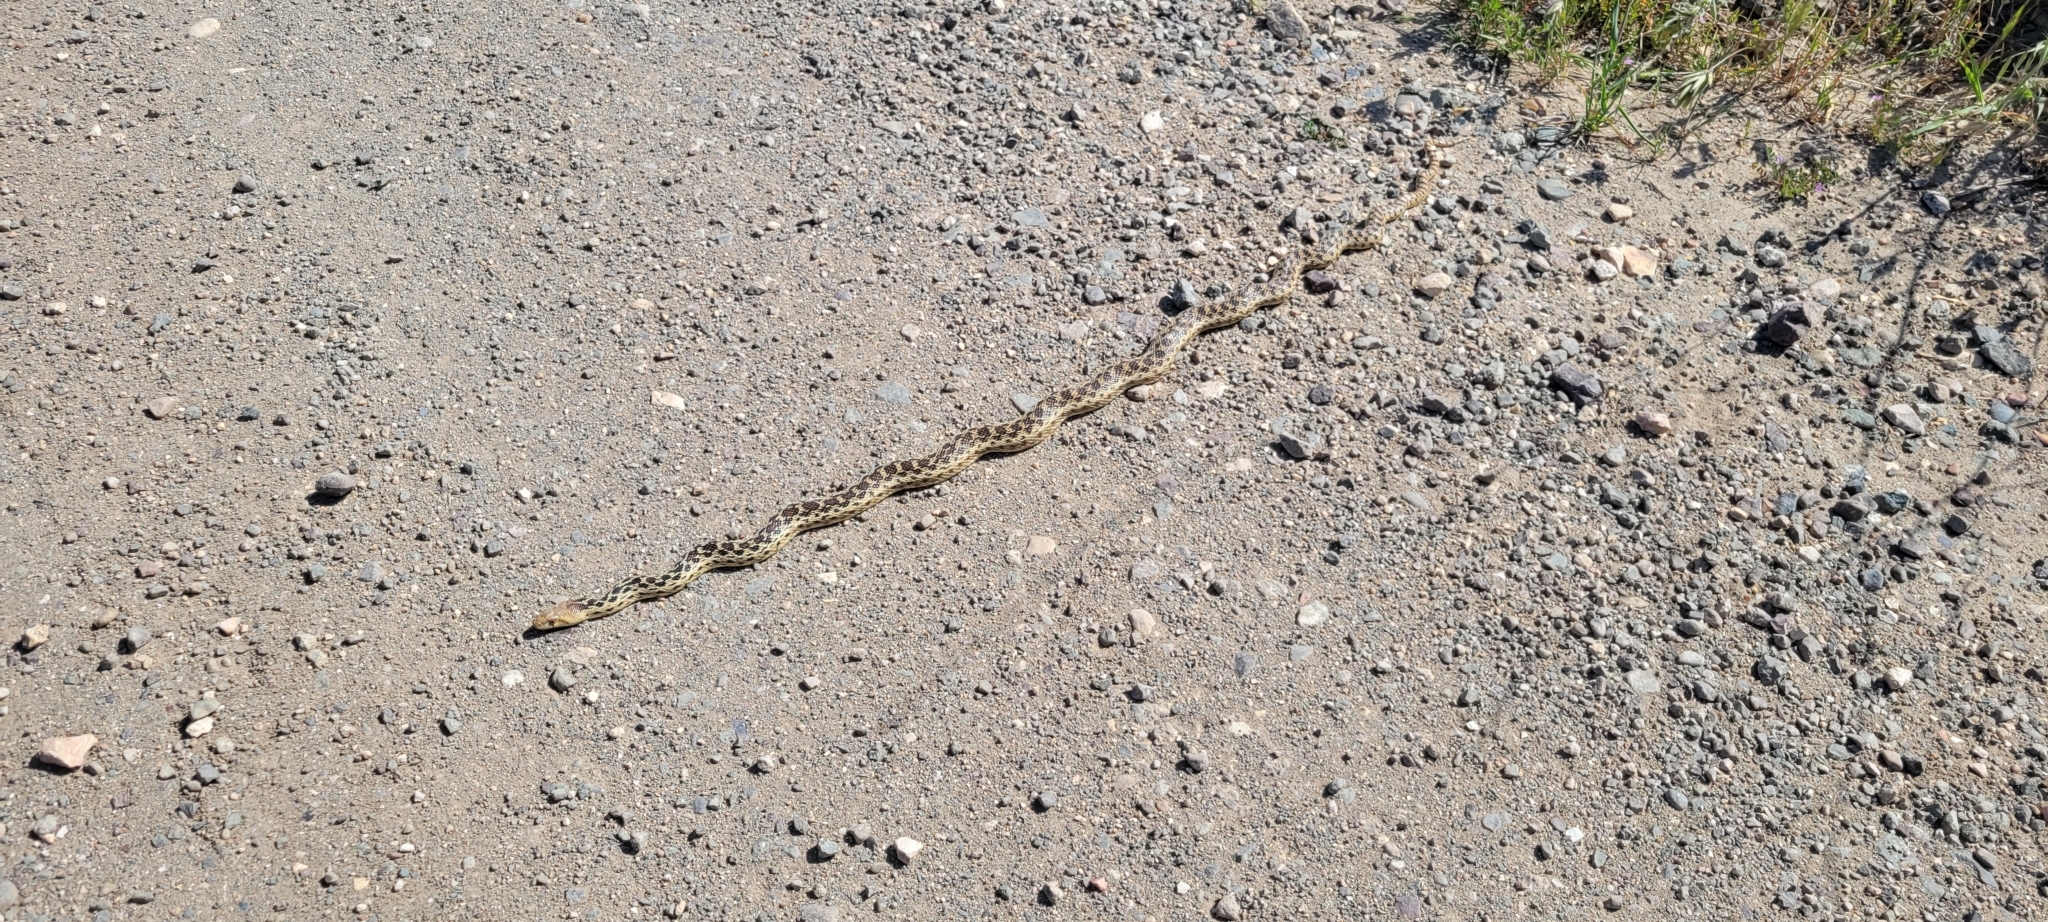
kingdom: Animalia
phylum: Chordata
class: Squamata
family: Colubridae
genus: Pituophis
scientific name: Pituophis catenifer
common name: Gopher snake
